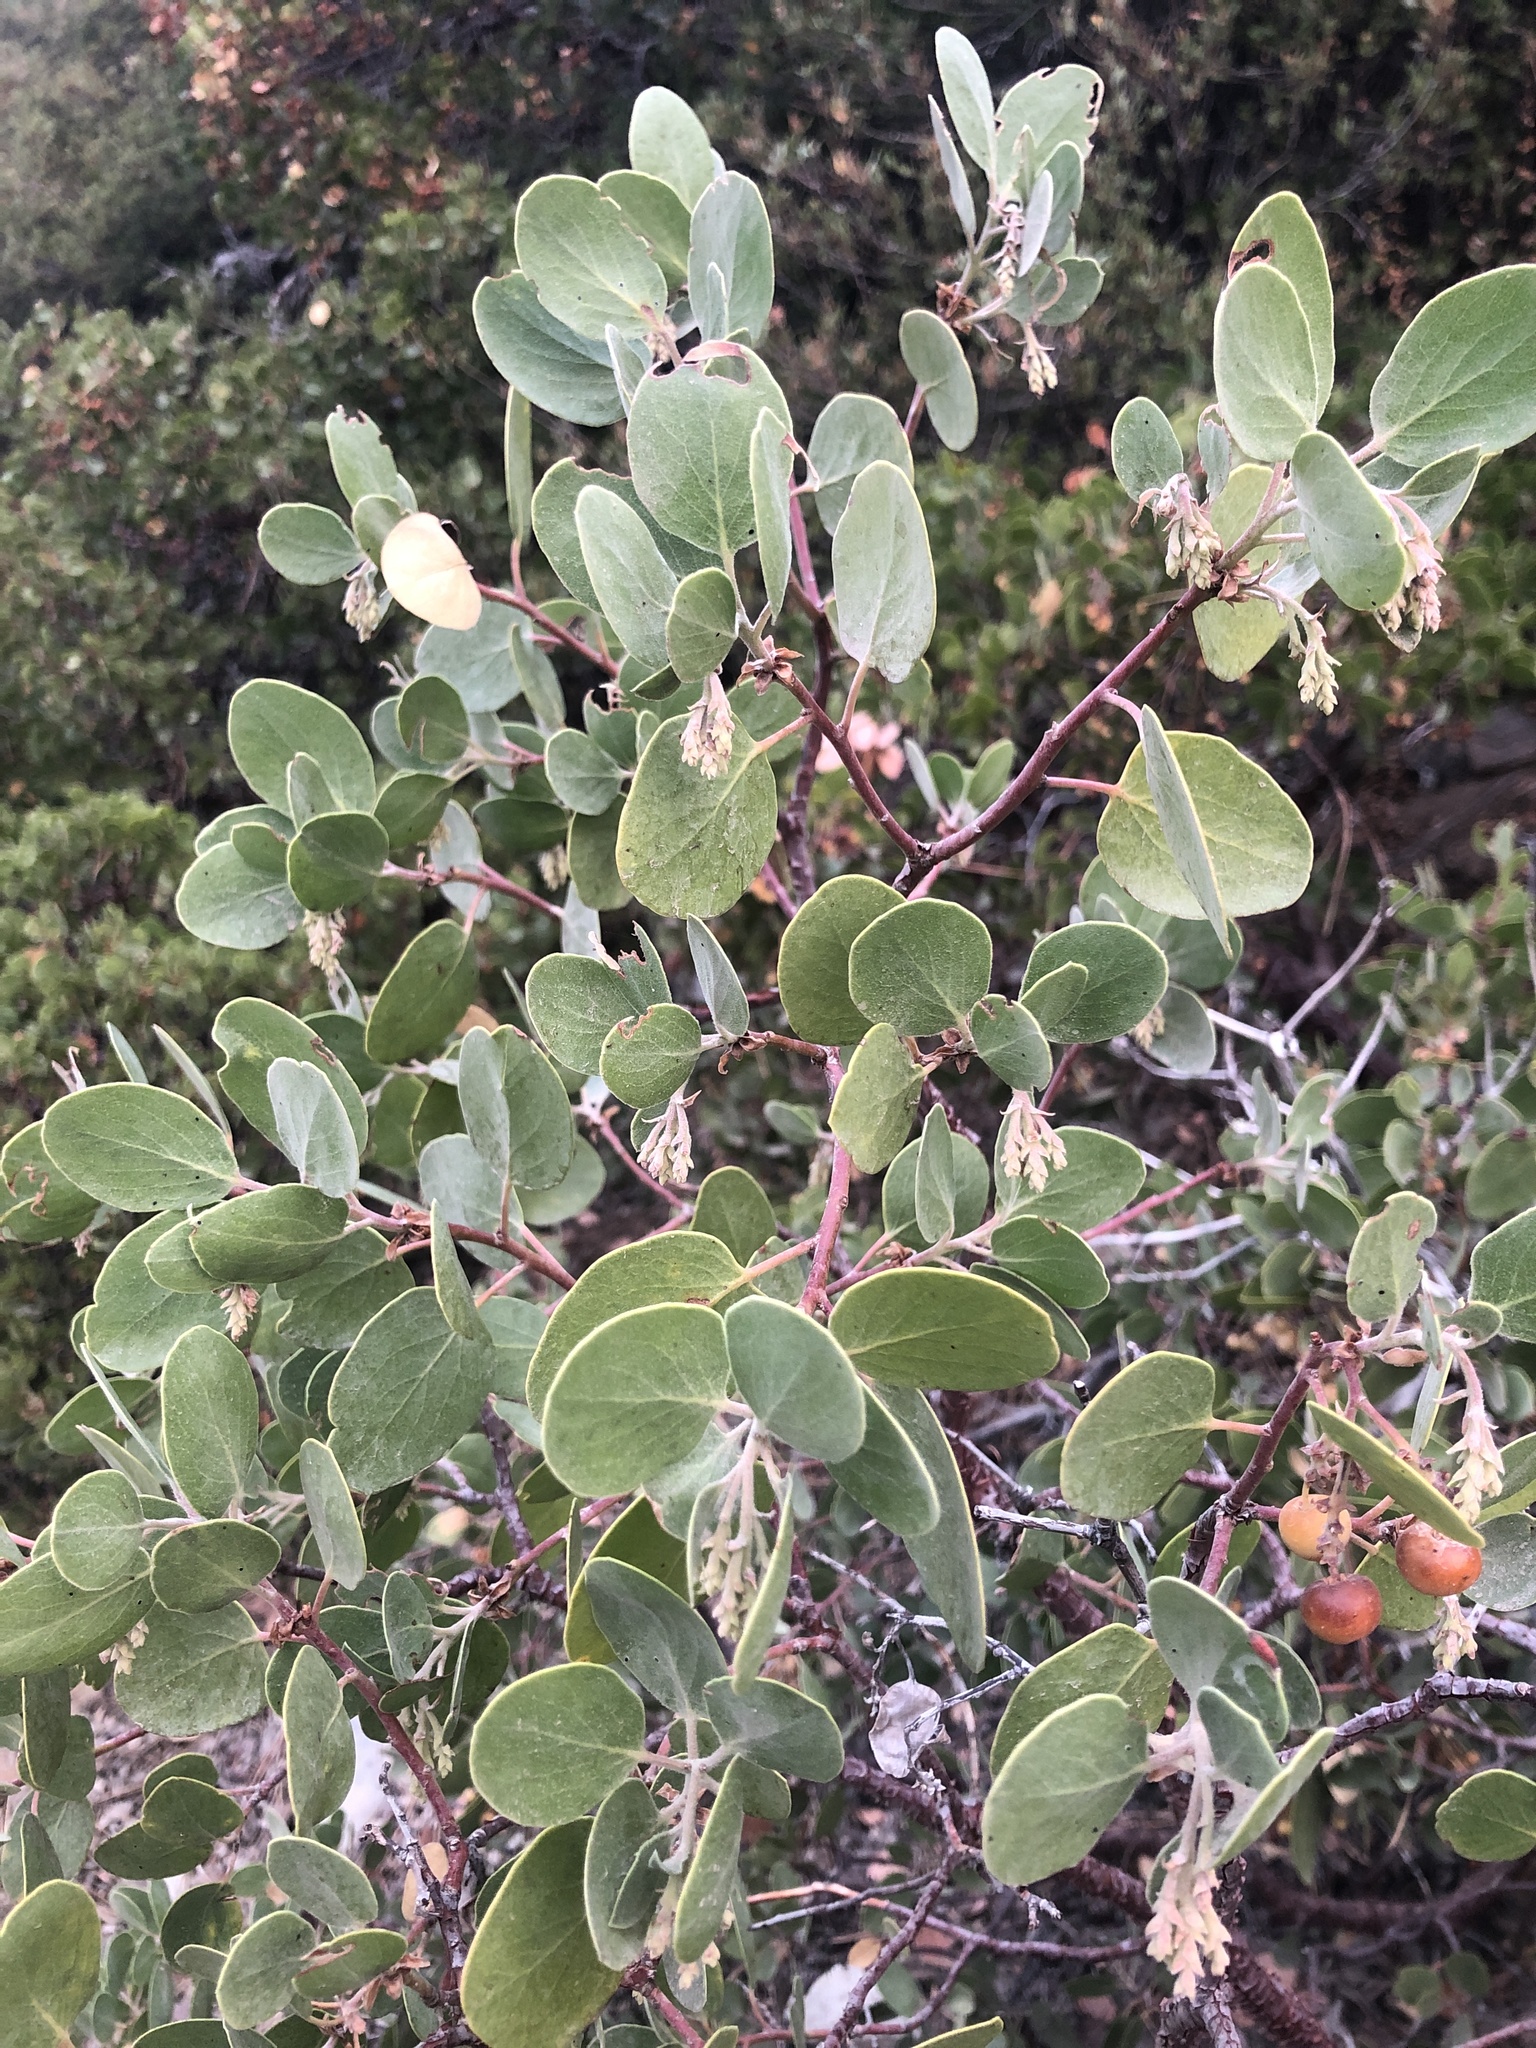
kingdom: Plantae
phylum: Tracheophyta
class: Magnoliopsida
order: Ericales
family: Ericaceae
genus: Arctostaphylos
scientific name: Arctostaphylos patula
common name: Green-leaf manzanita
